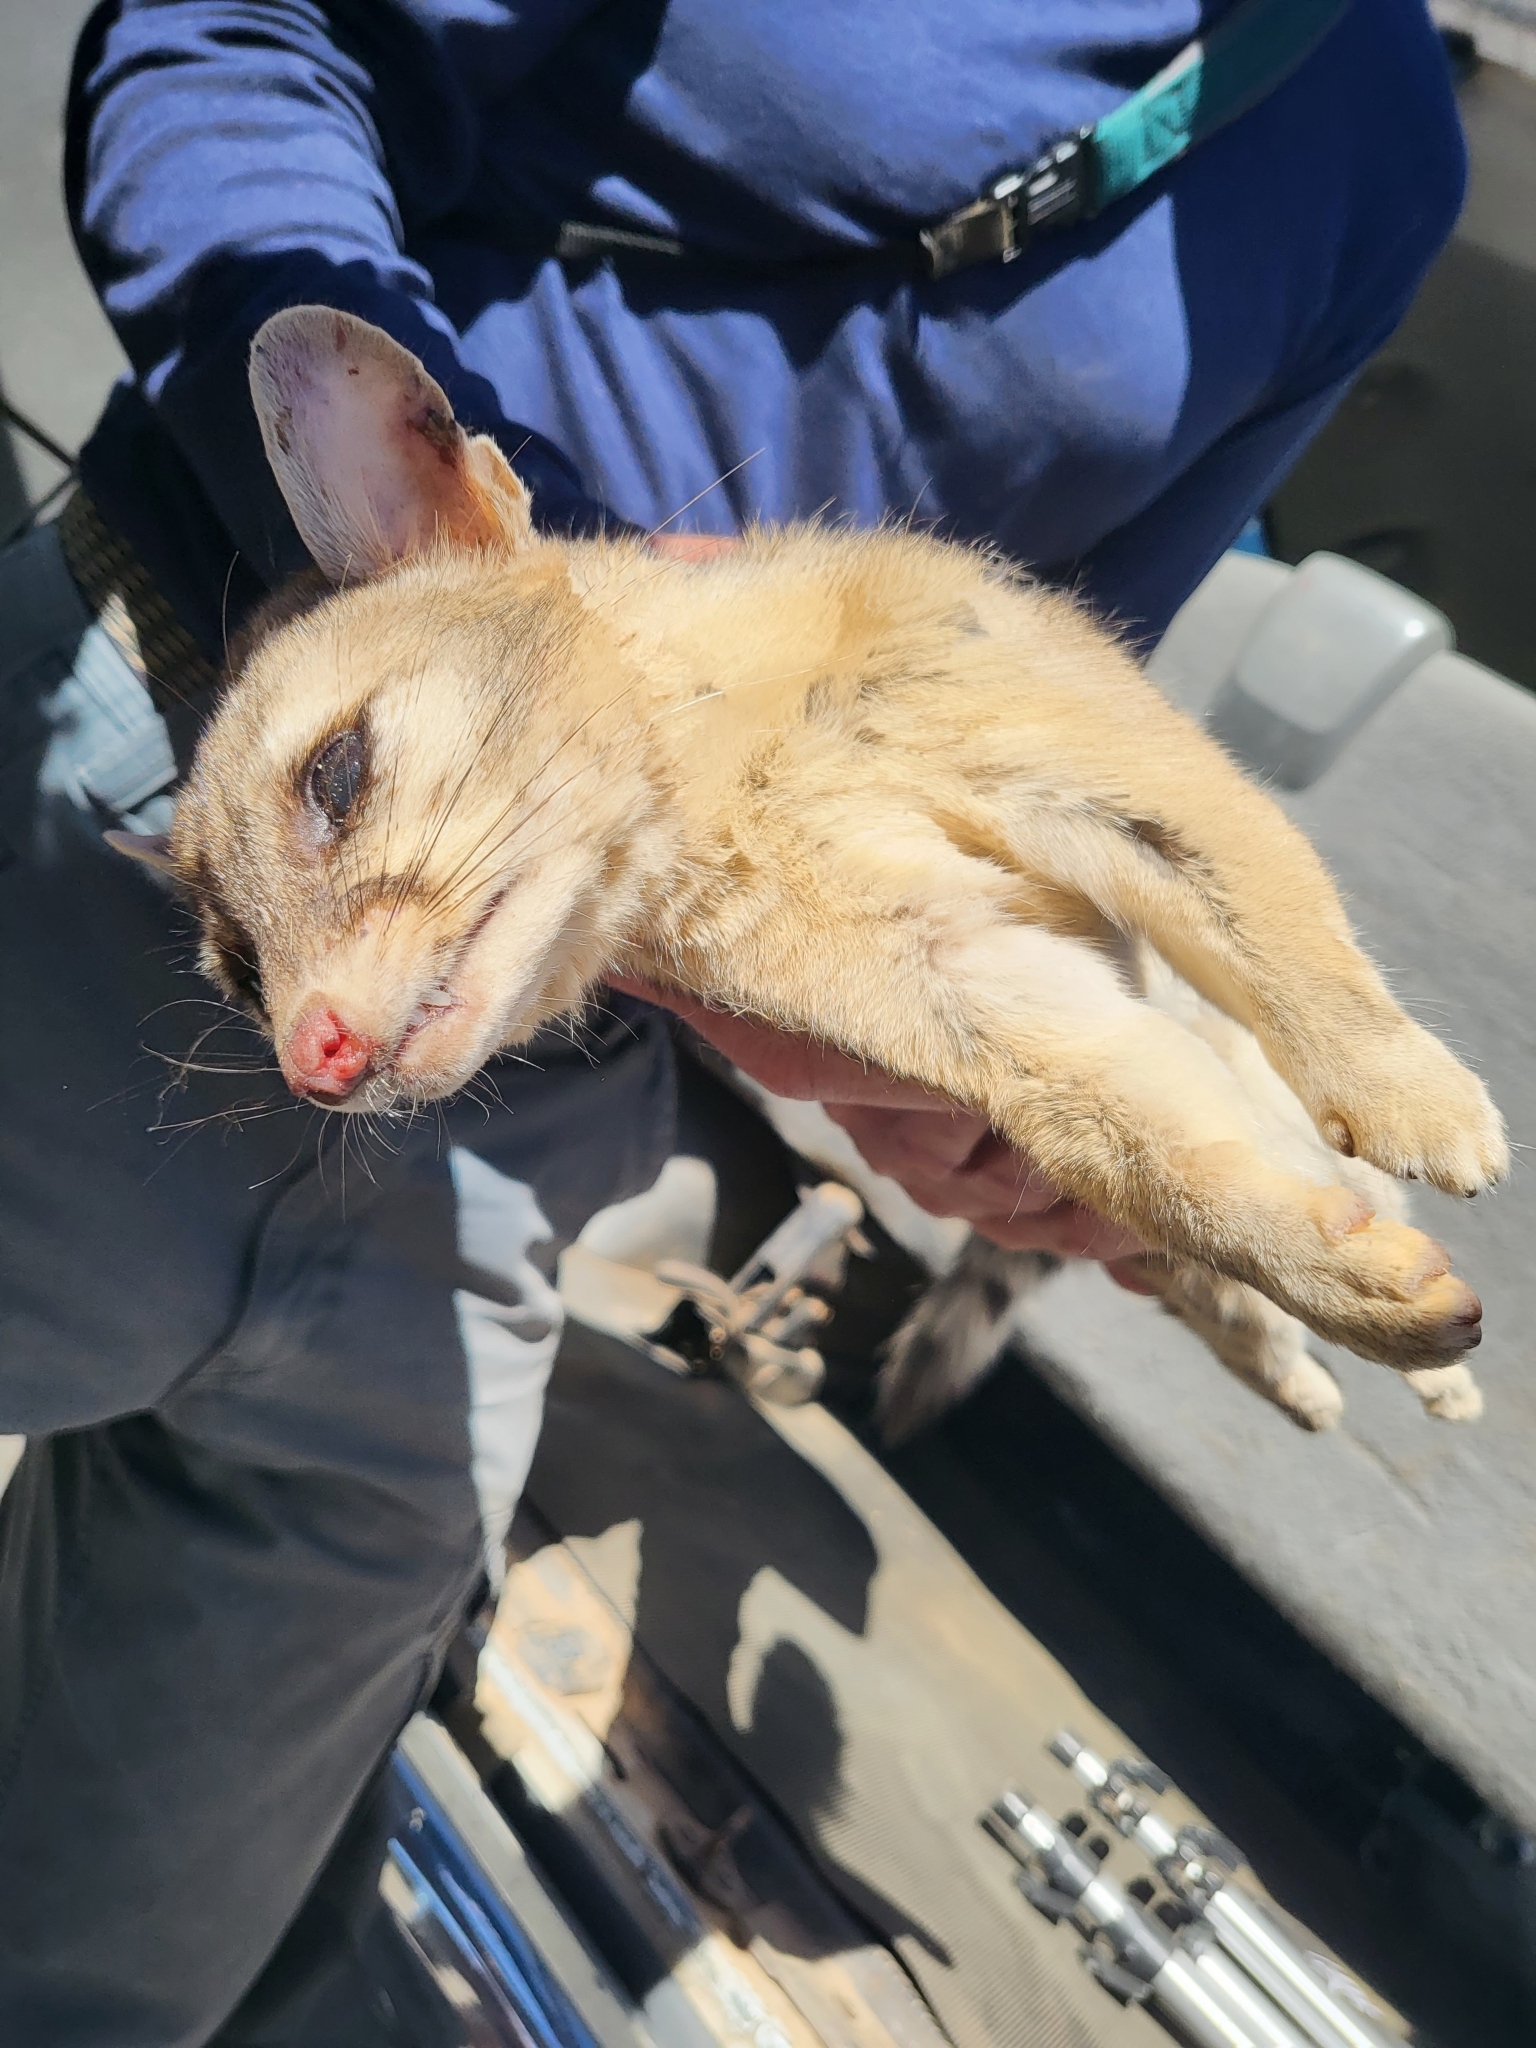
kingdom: Animalia
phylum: Chordata
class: Mammalia
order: Carnivora
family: Procyonidae
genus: Bassariscus
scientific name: Bassariscus astutus
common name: Ringtail
